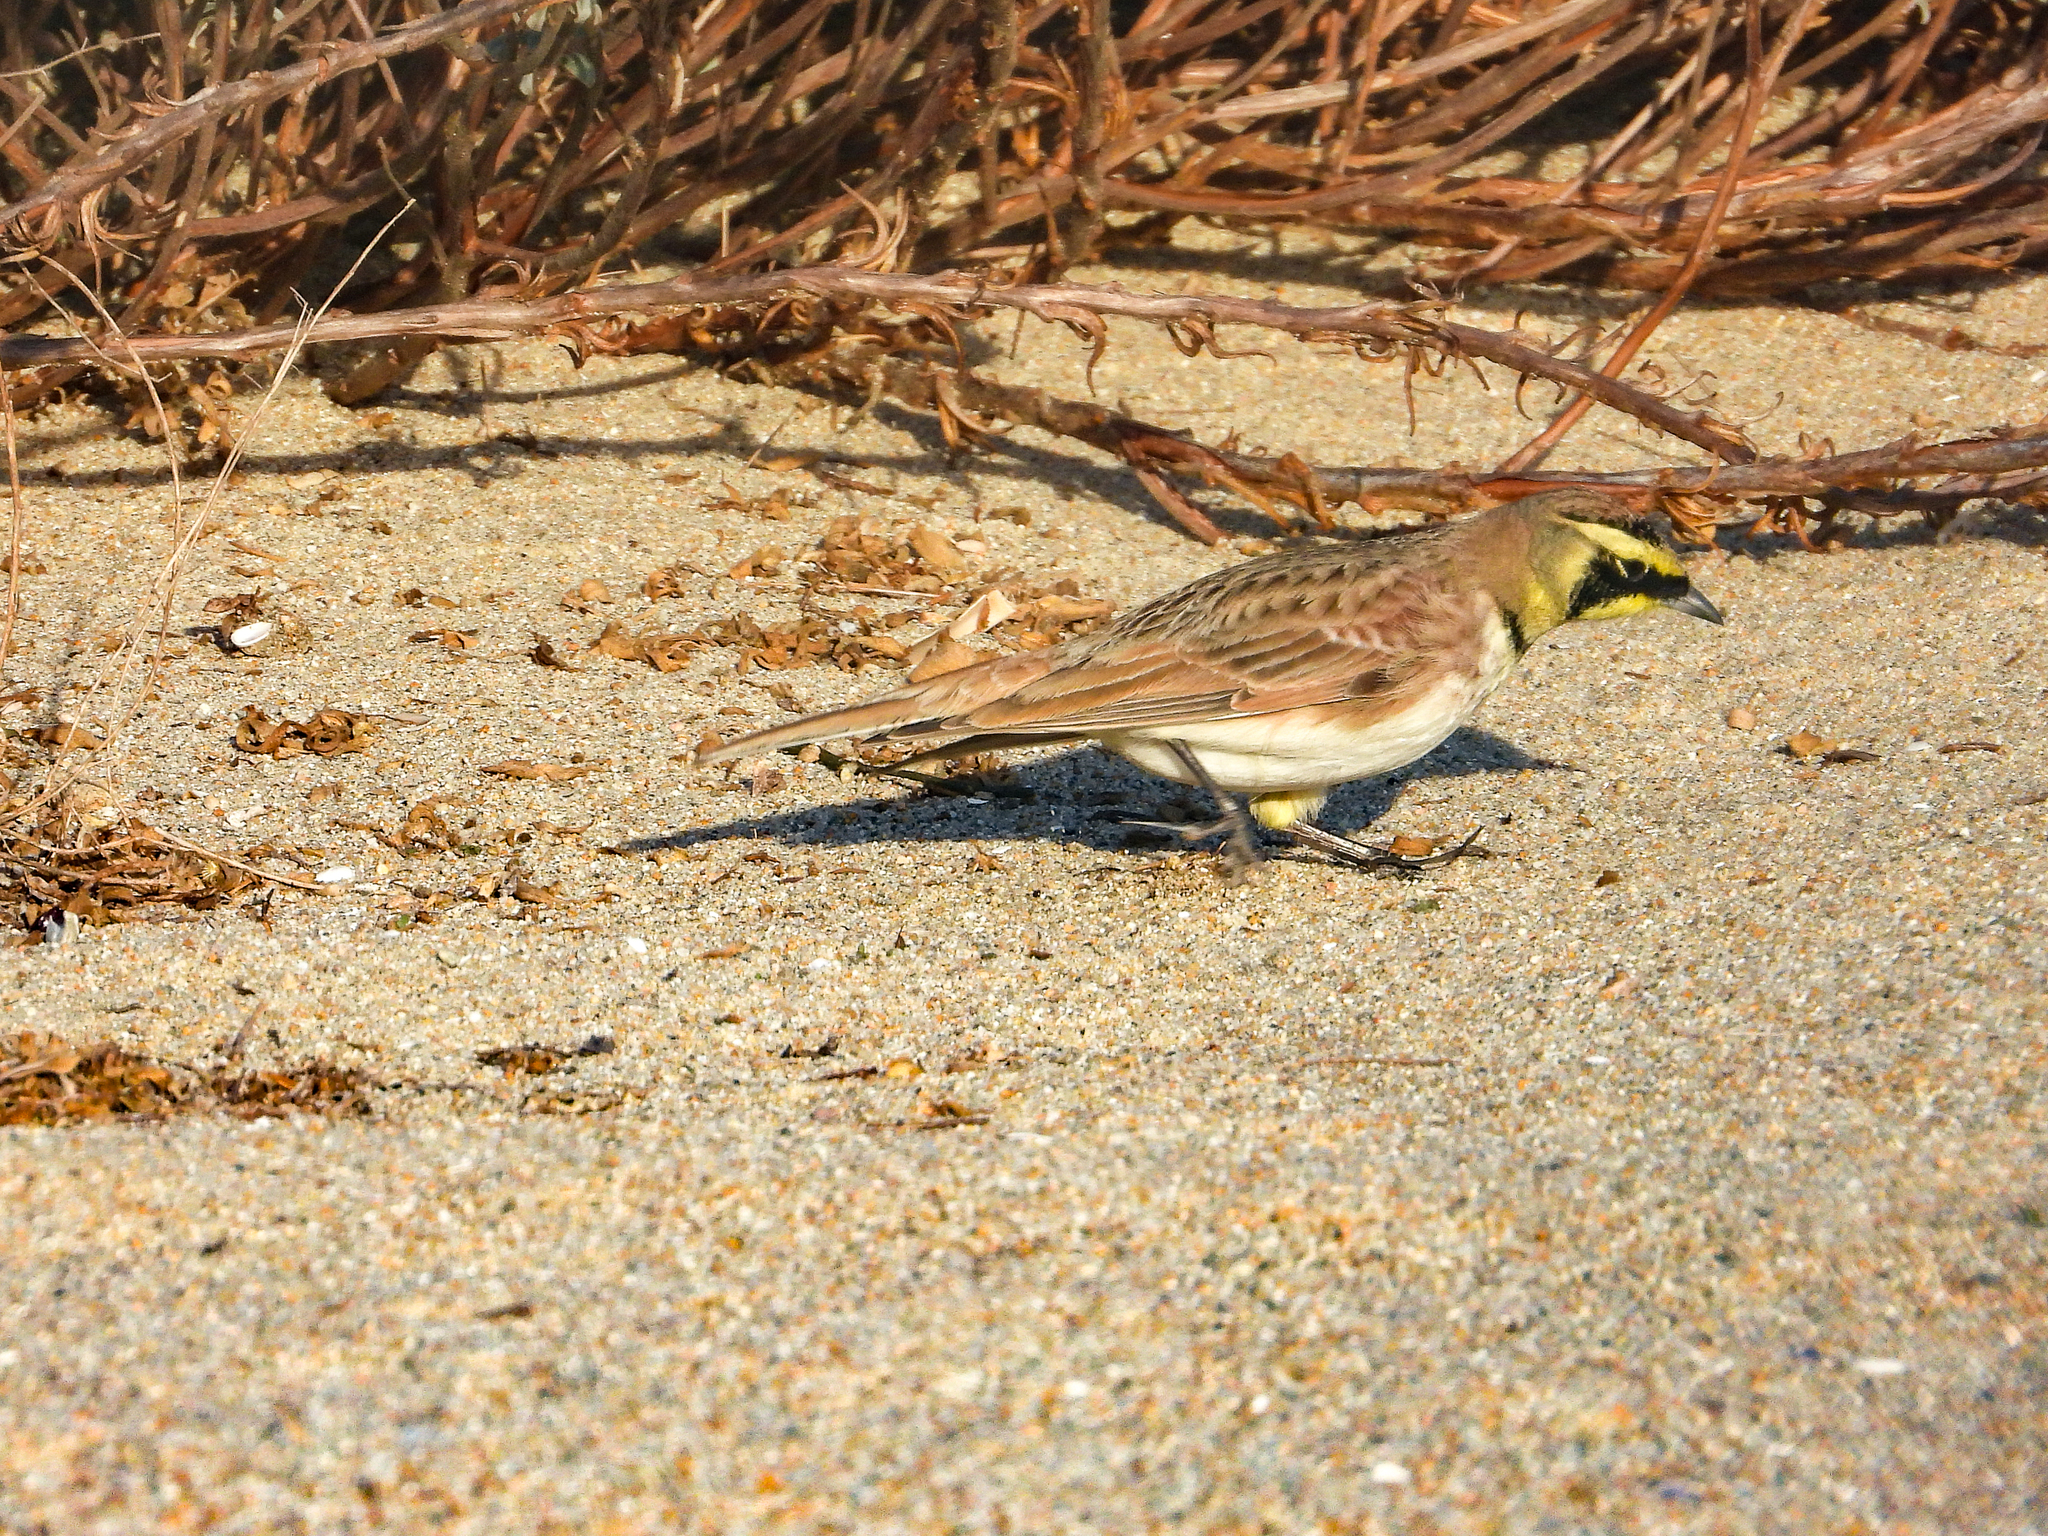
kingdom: Animalia
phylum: Chordata
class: Aves
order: Passeriformes
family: Alaudidae
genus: Eremophila
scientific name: Eremophila alpestris
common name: Horned lark
